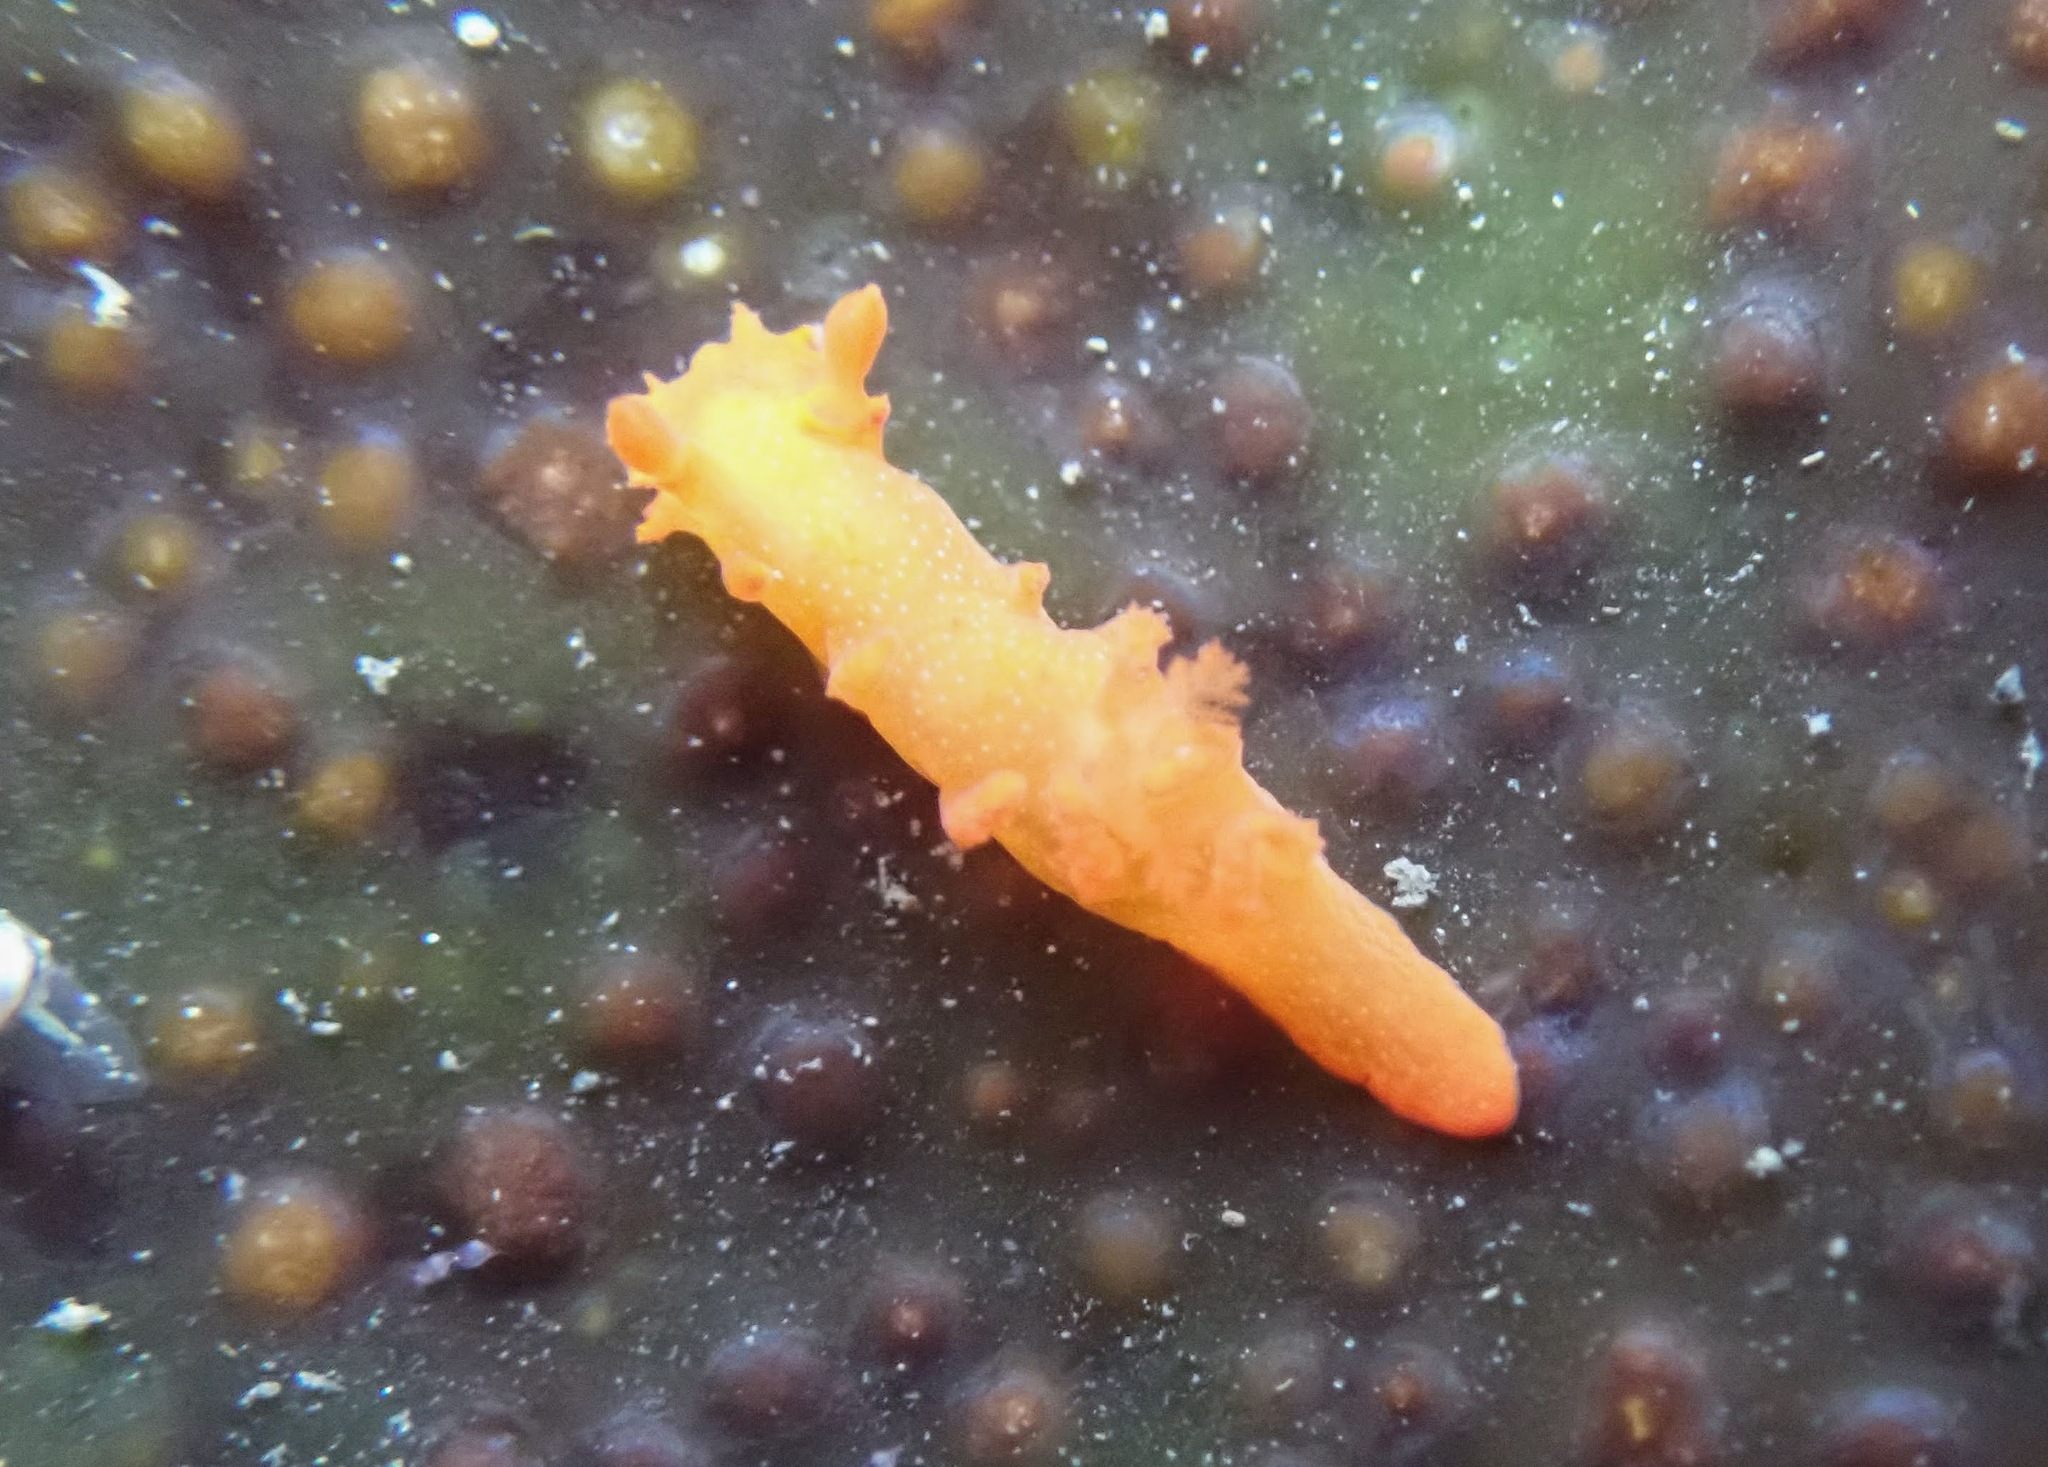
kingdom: Animalia
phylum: Mollusca
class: Gastropoda
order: Nudibranchia
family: Polyceridae
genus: Triopha
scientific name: Triopha maculata
